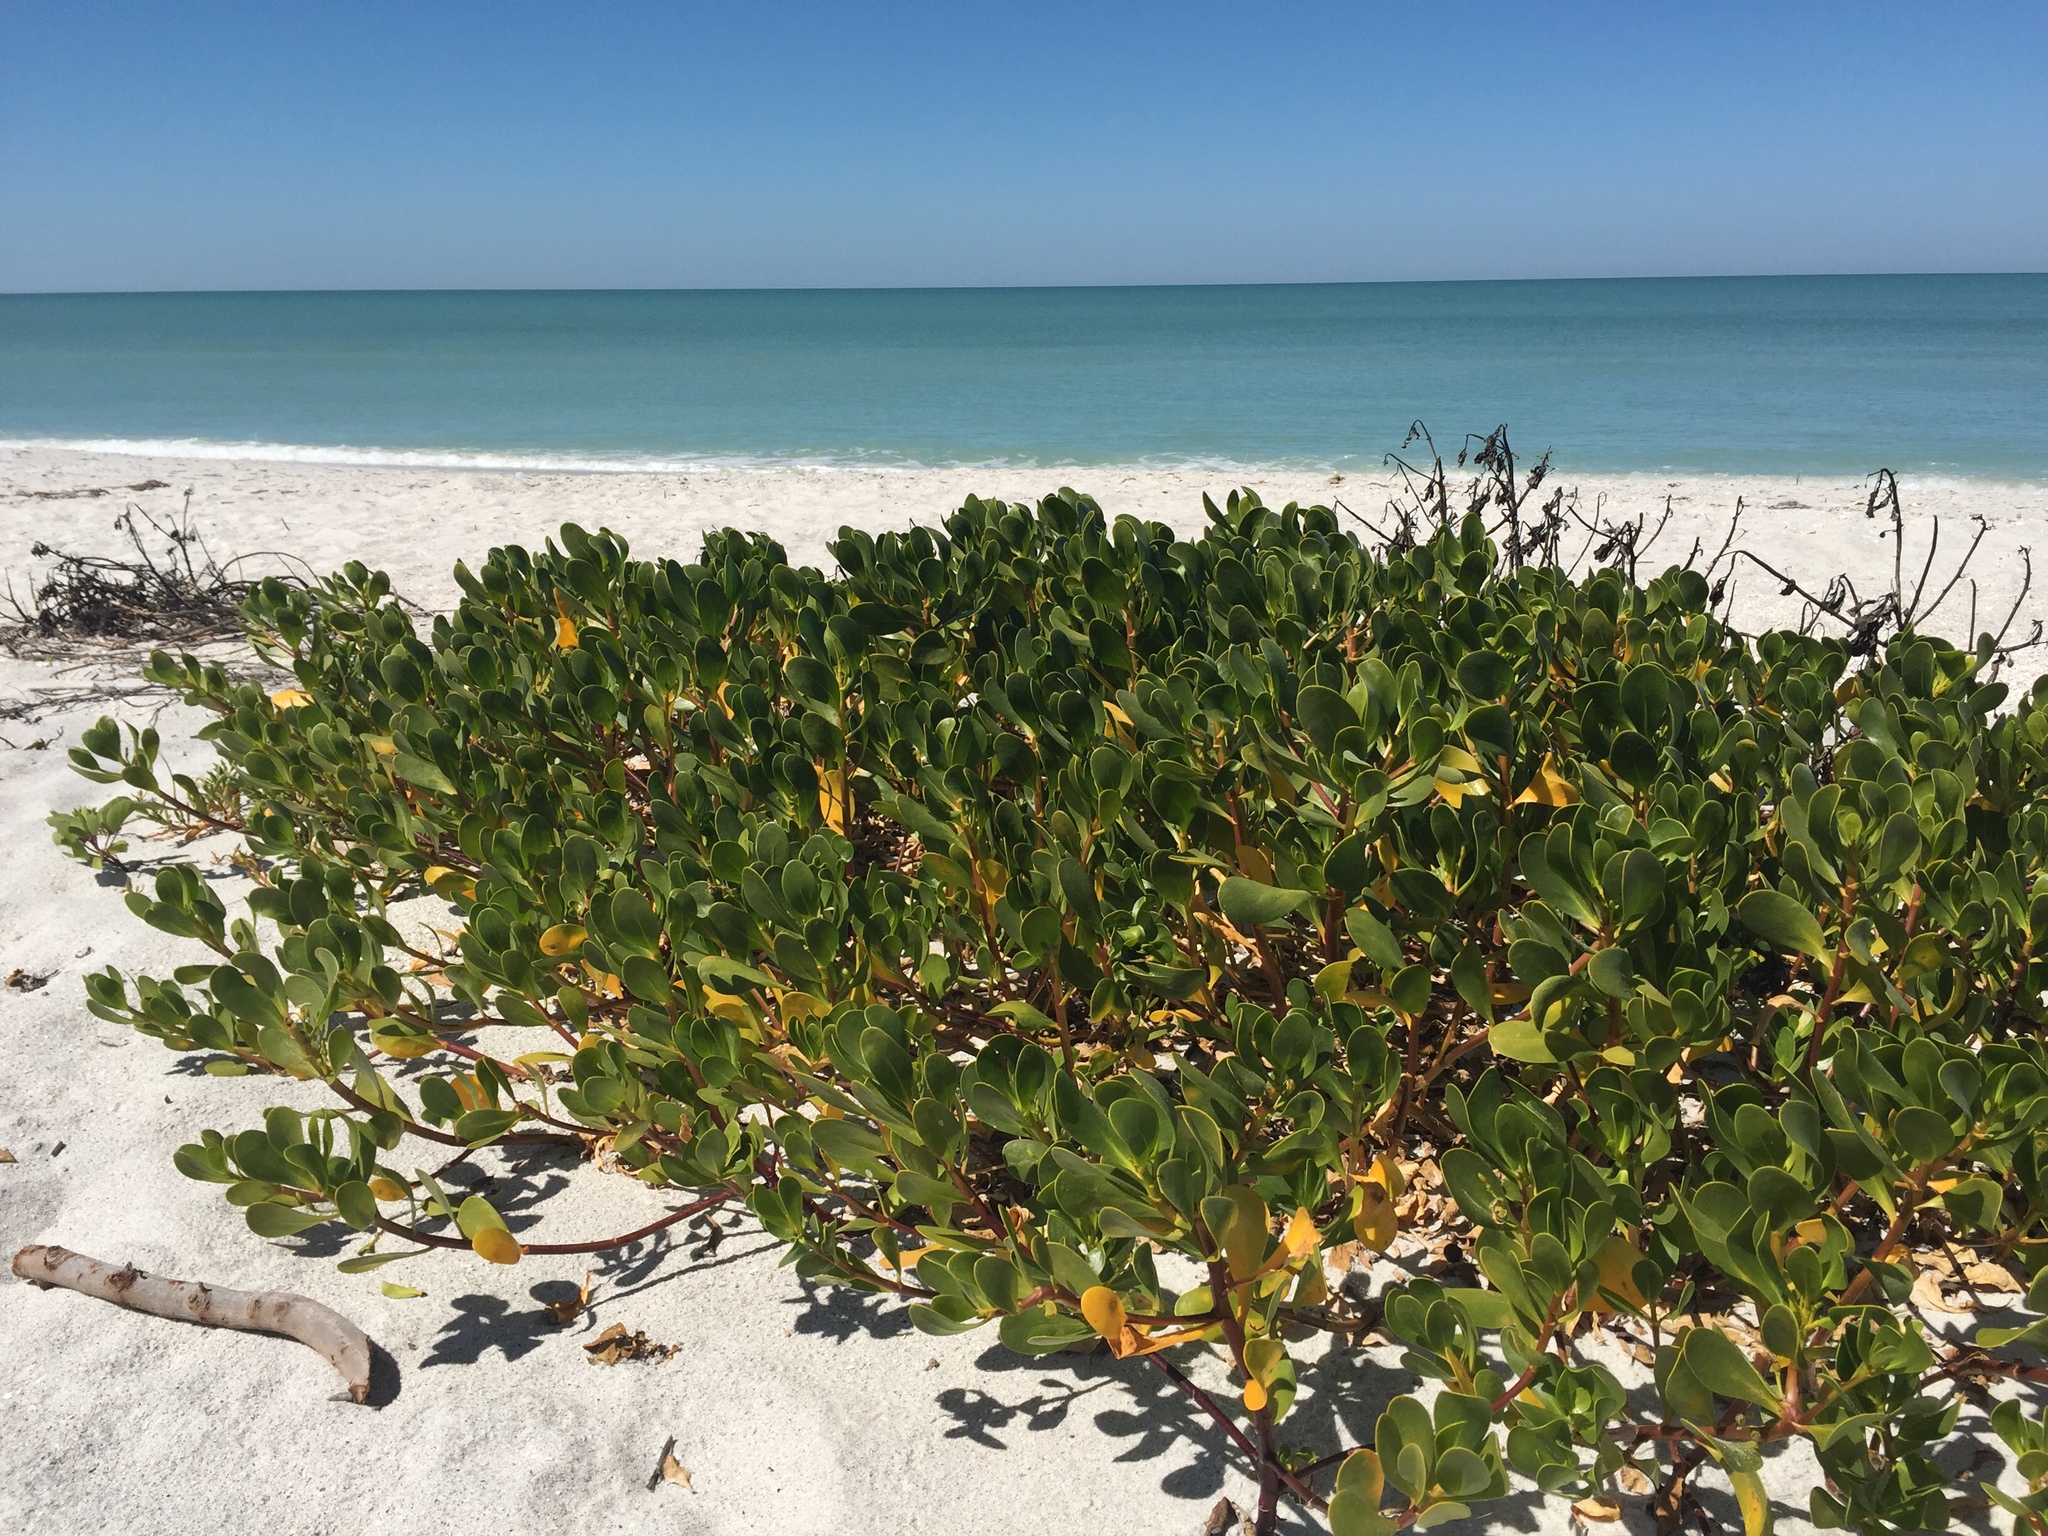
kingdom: Plantae
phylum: Tracheophyta
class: Magnoliopsida
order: Asterales
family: Goodeniaceae
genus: Scaevola
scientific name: Scaevola plumieri
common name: Gull feed
